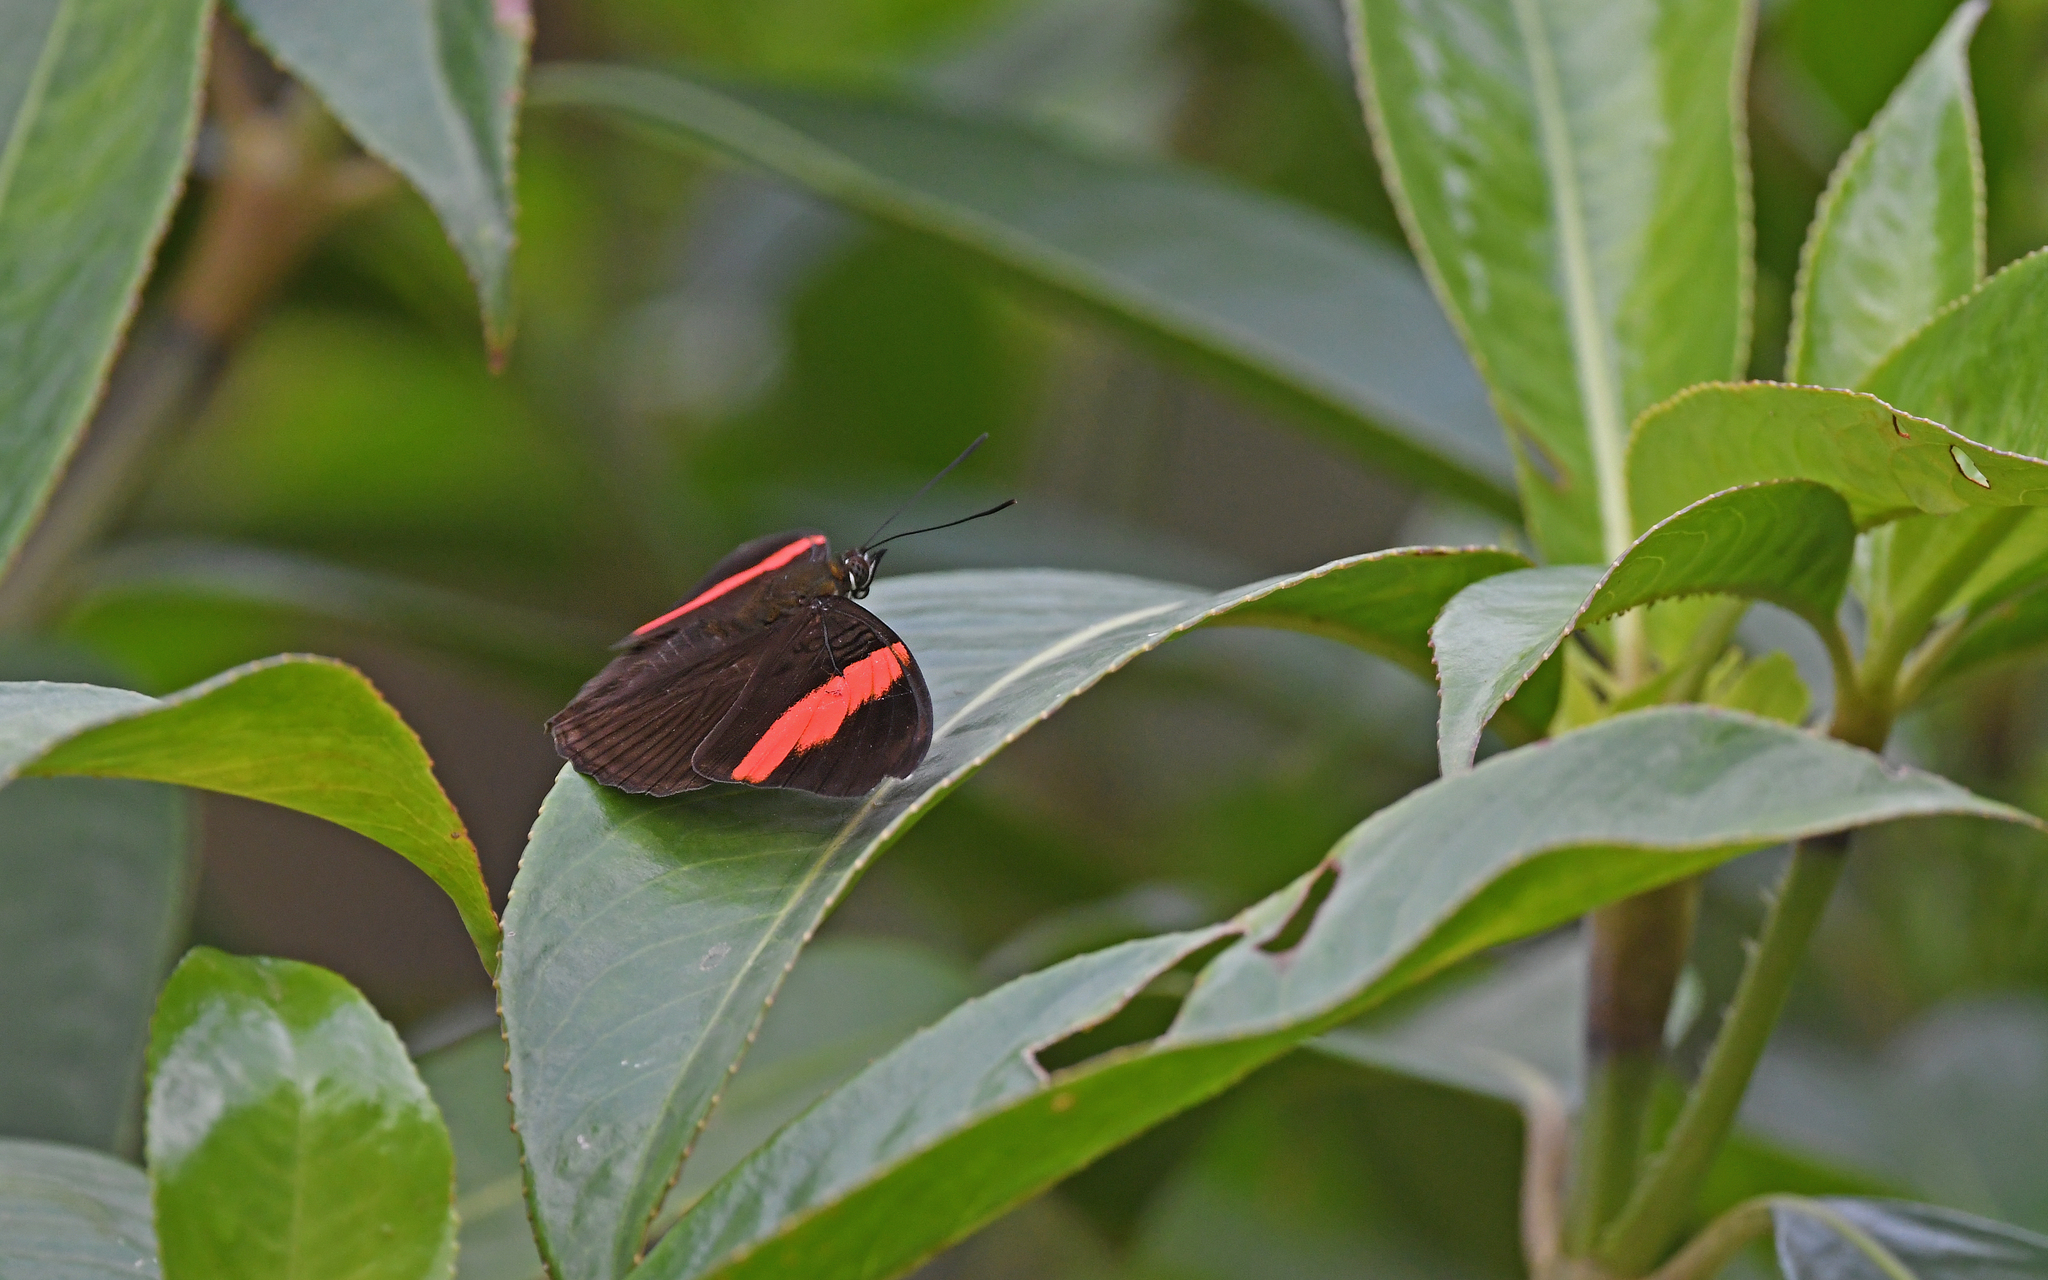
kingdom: Animalia
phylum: Arthropoda
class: Insecta
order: Lepidoptera
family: Nymphalidae
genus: Limenitis
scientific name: Limenitis isis
